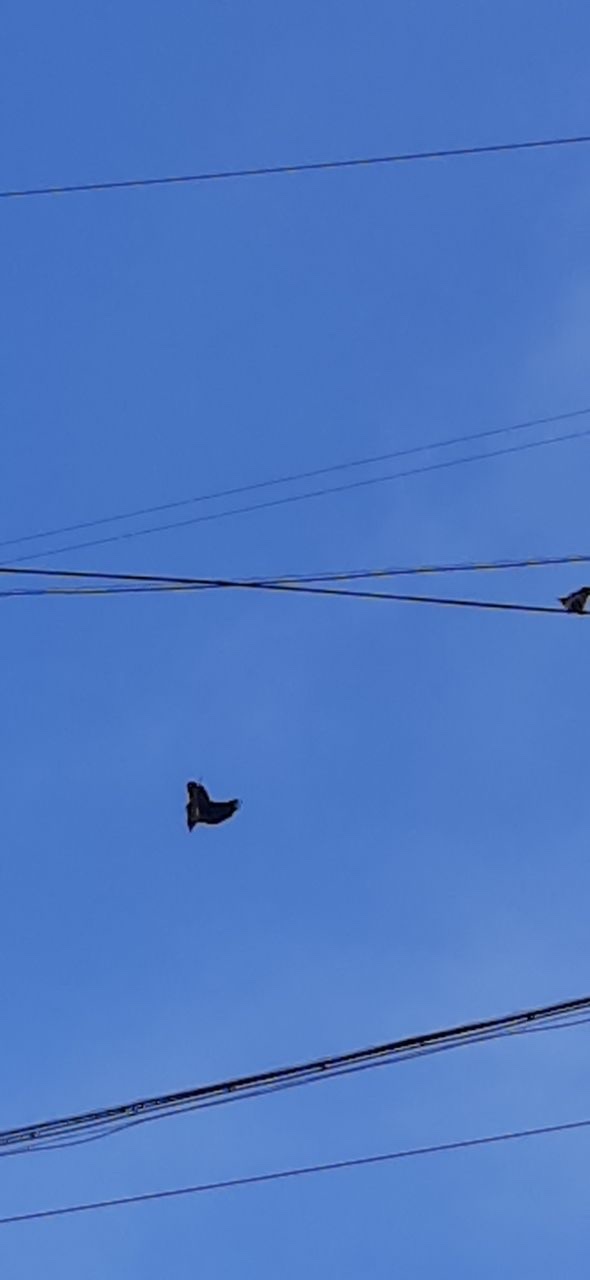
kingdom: Animalia
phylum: Chordata
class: Aves
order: Passeriformes
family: Corvidae
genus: Corvus
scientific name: Corvus cornix
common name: Hooded crow
